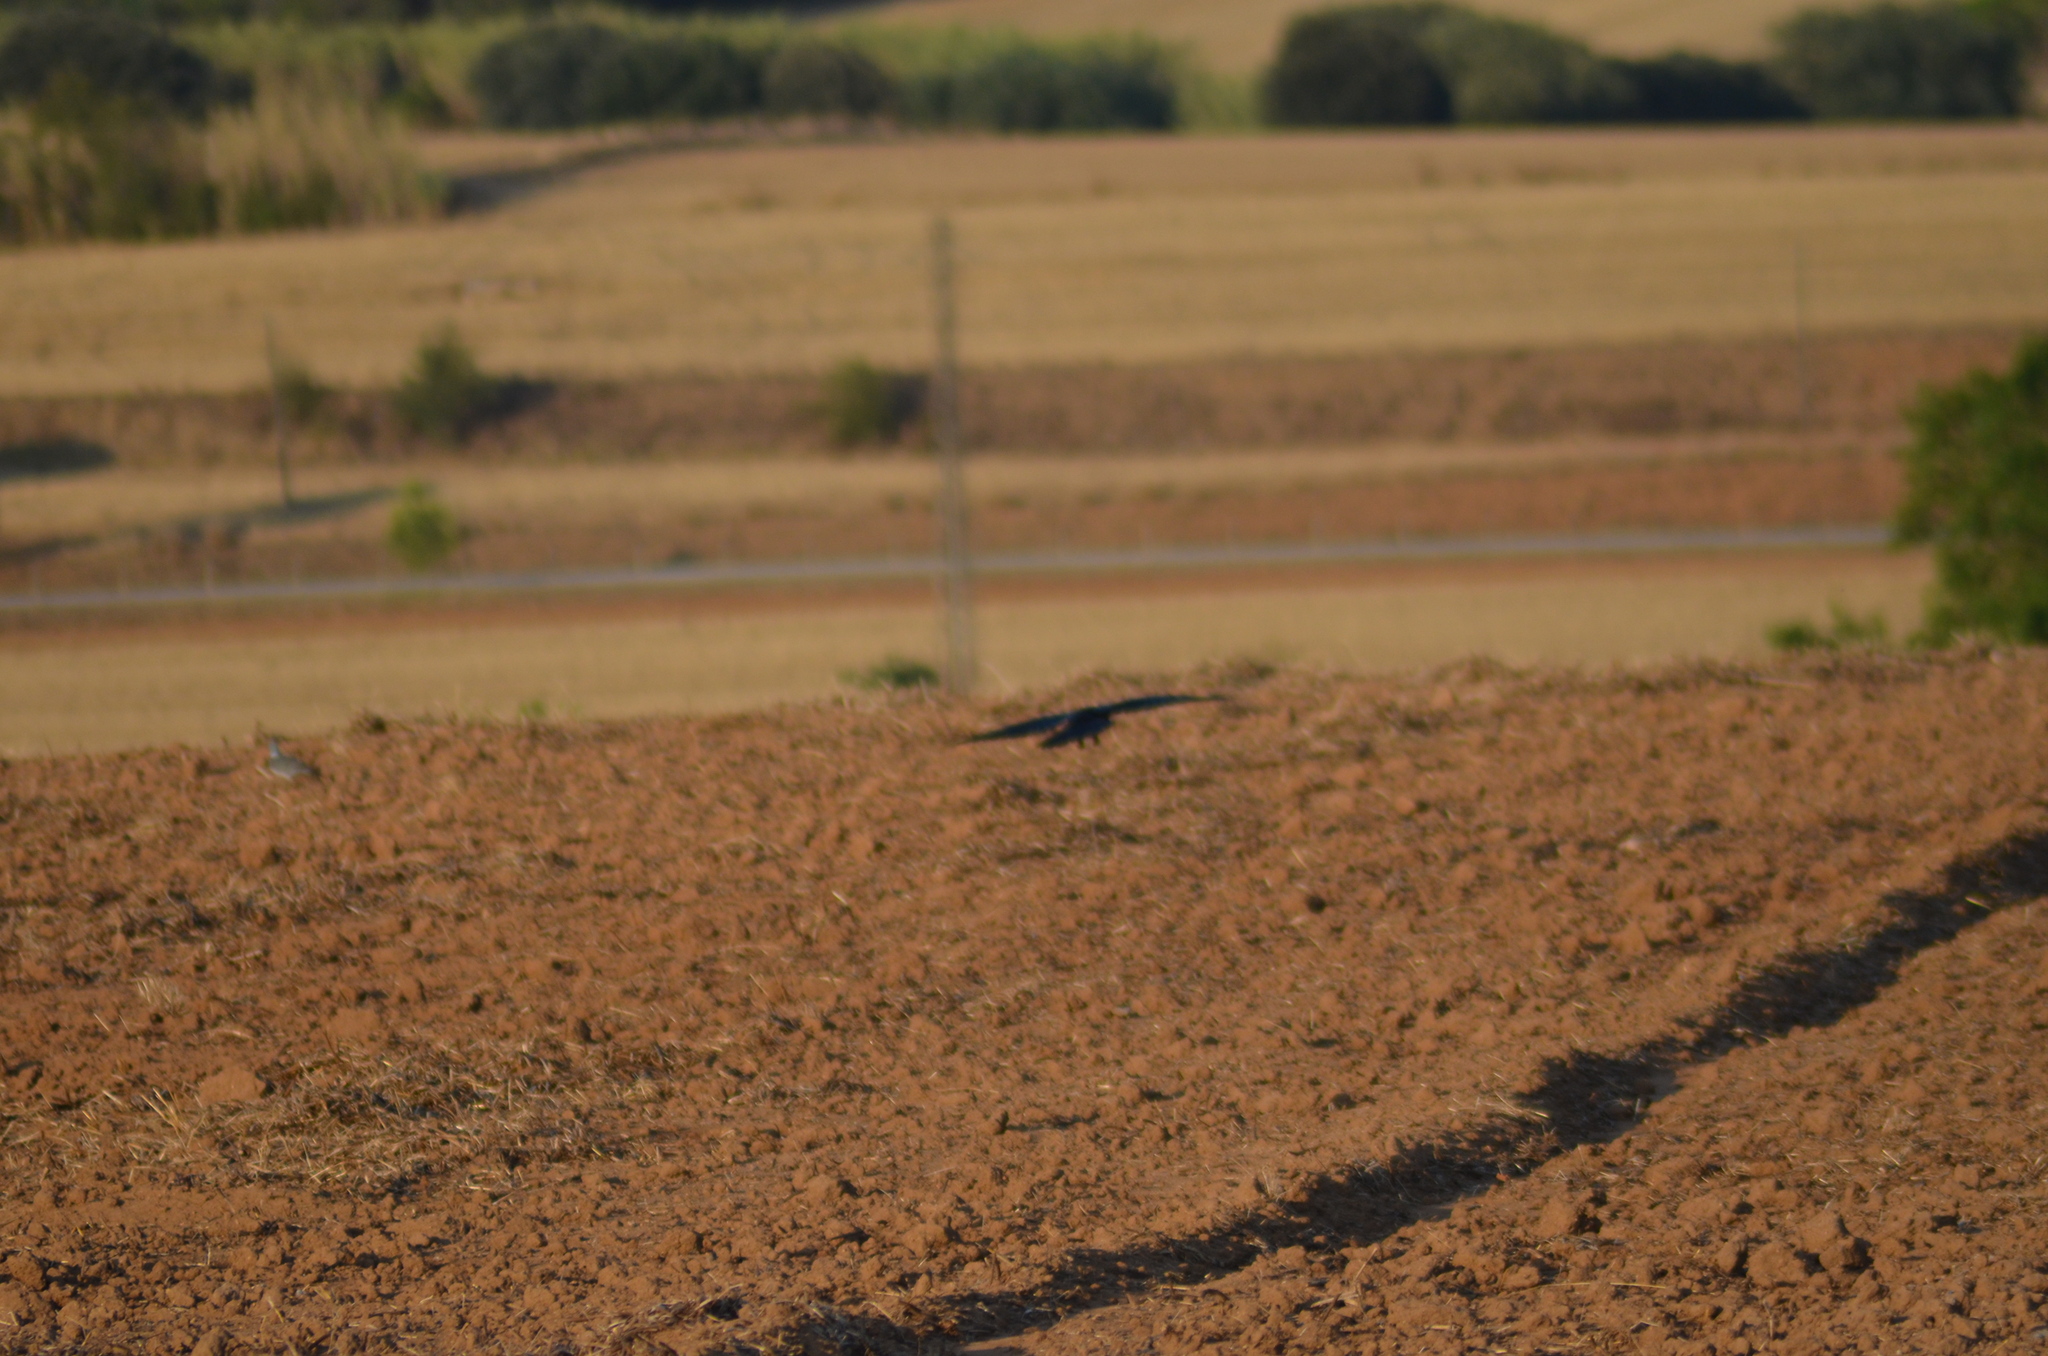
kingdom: Animalia
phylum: Chordata
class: Aves
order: Passeriformes
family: Corvidae
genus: Corvus
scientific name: Corvus corax
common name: Common raven
